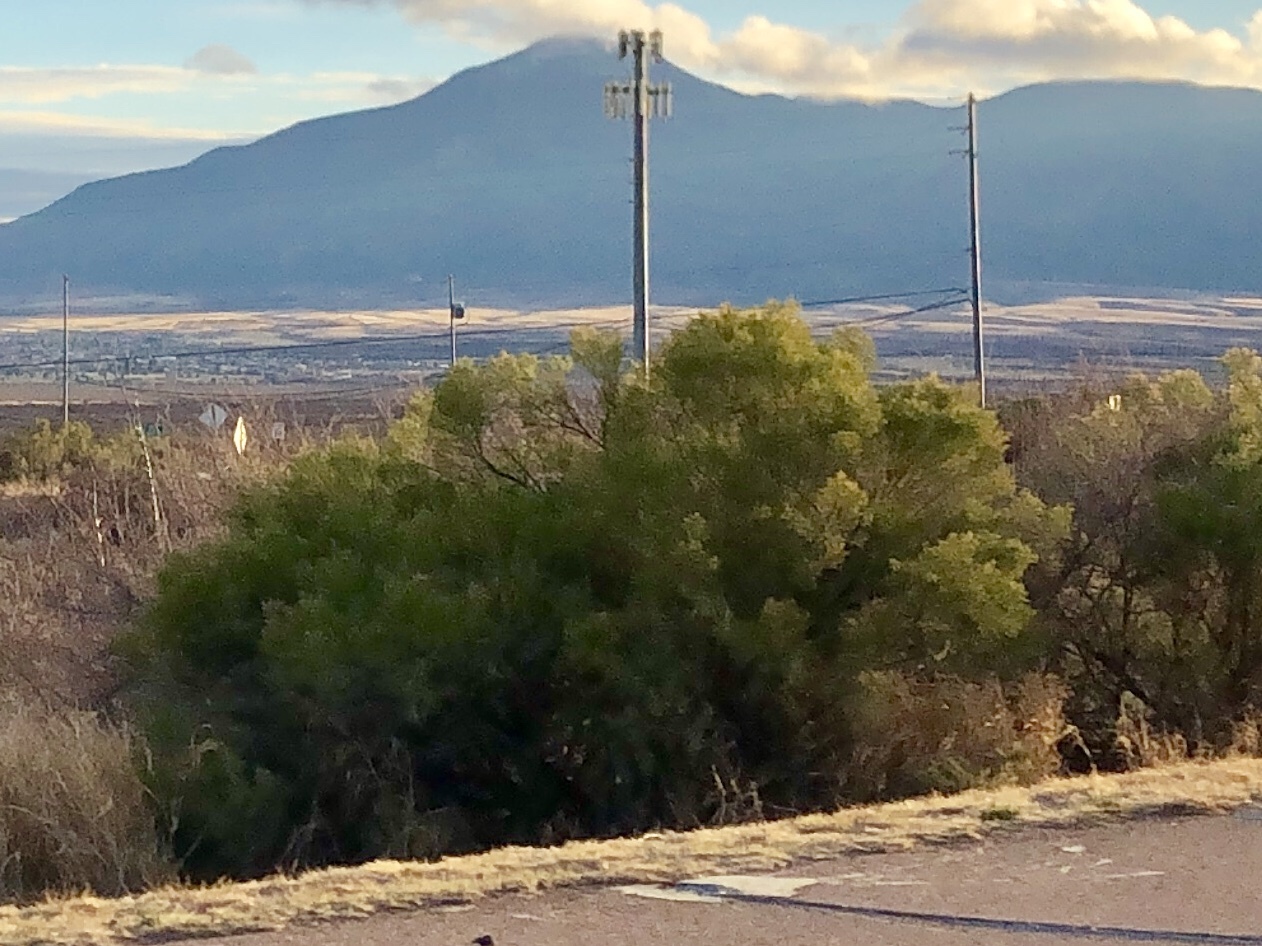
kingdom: Plantae
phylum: Tracheophyta
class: Magnoliopsida
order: Asterales
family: Asteraceae
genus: Baccharis
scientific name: Baccharis sarothroides
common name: Desert-broom
